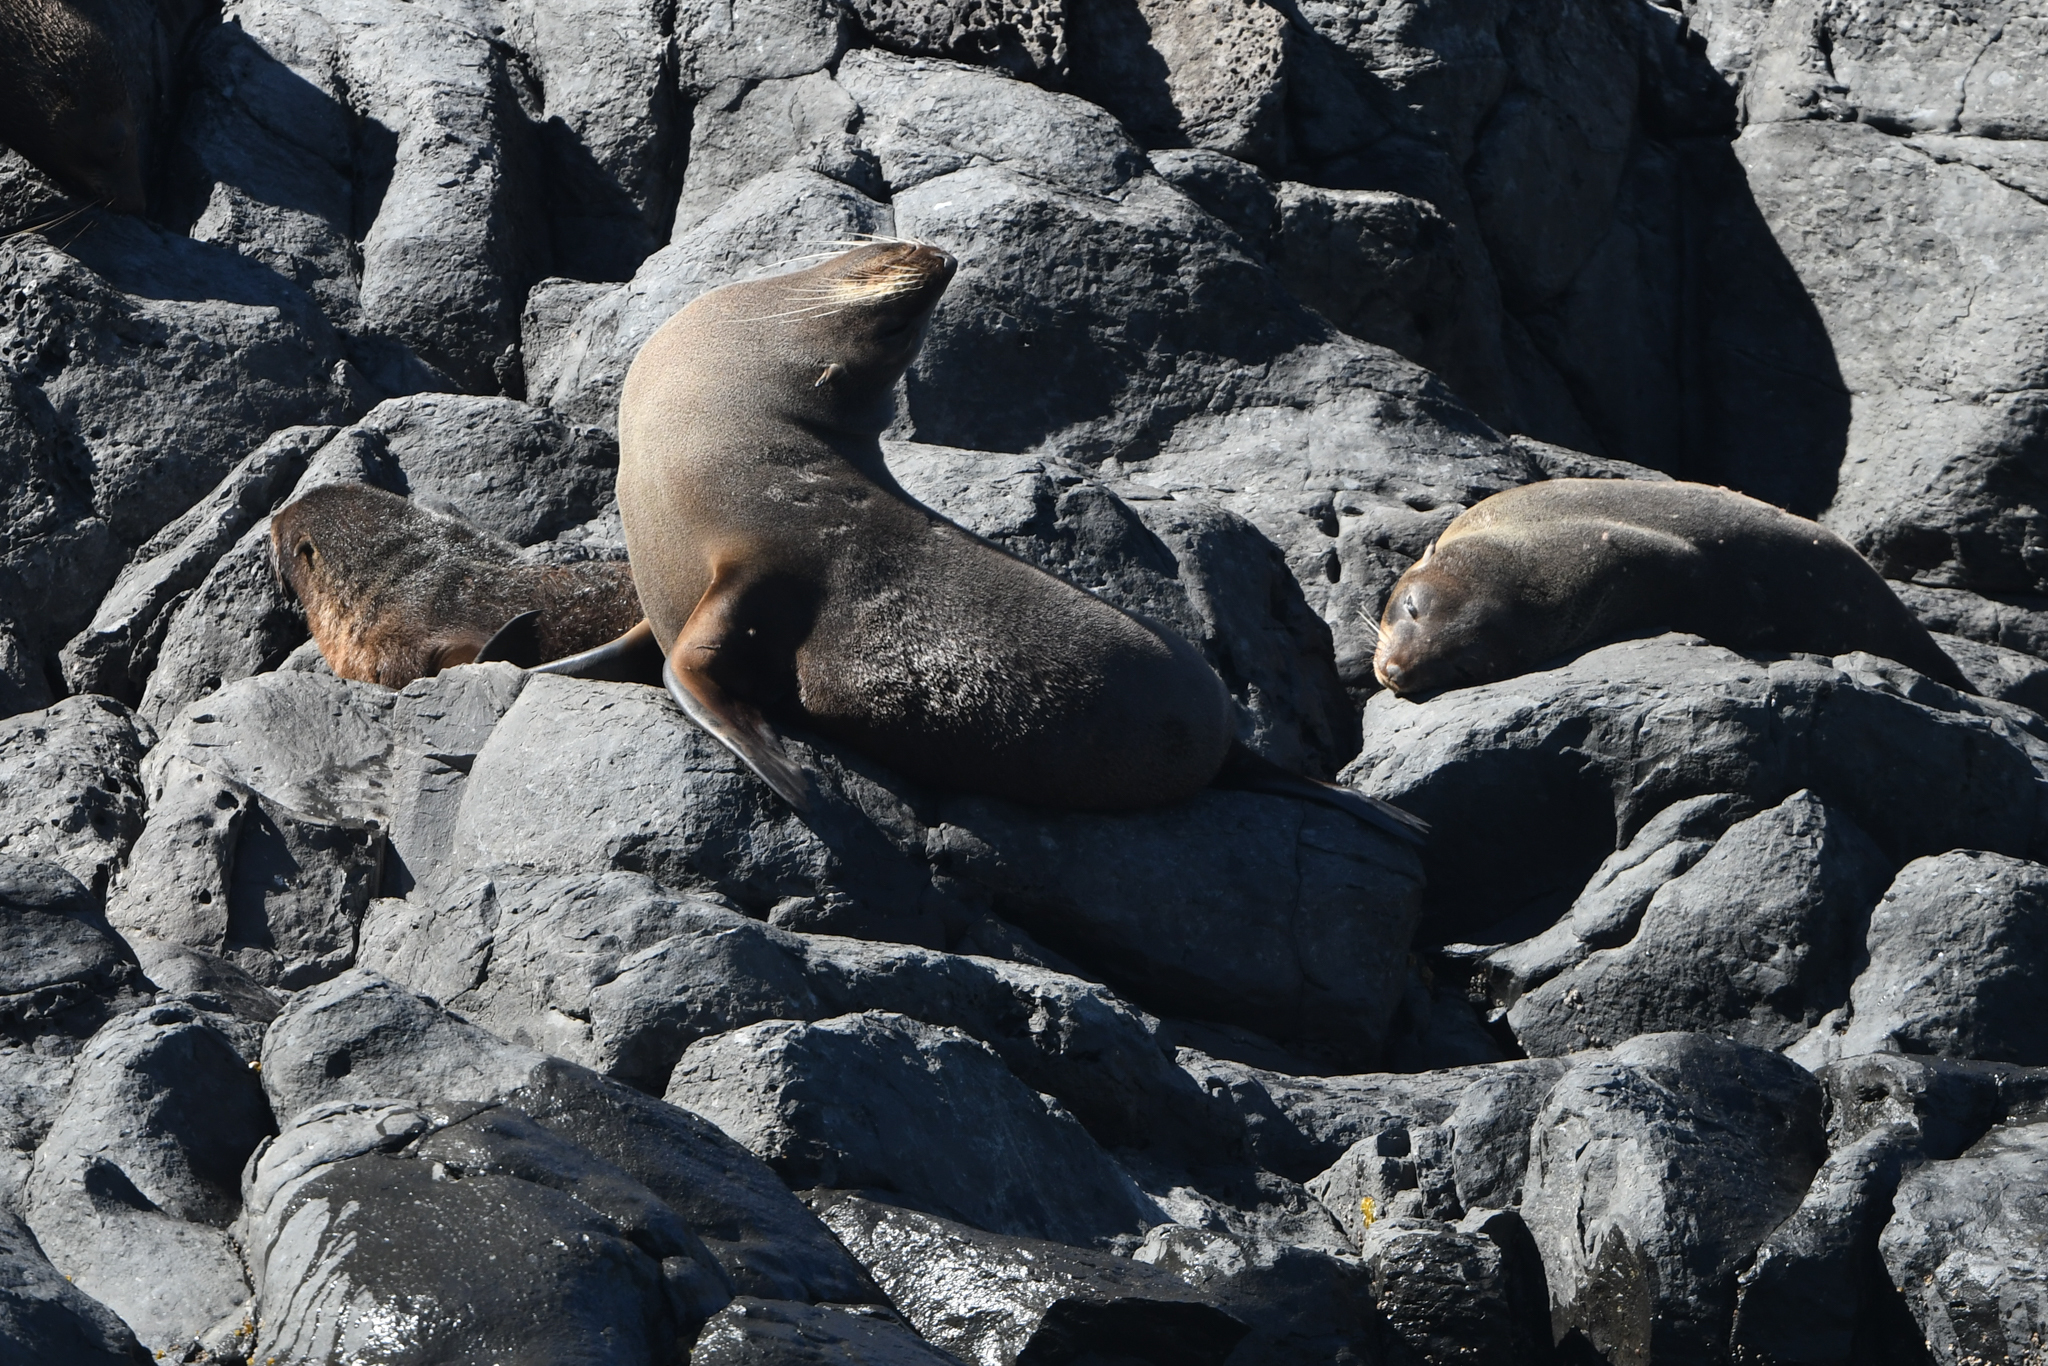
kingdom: Animalia
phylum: Chordata
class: Mammalia
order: Carnivora
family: Otariidae
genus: Arctocephalus
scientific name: Arctocephalus forsteri
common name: New zealand fur seal
